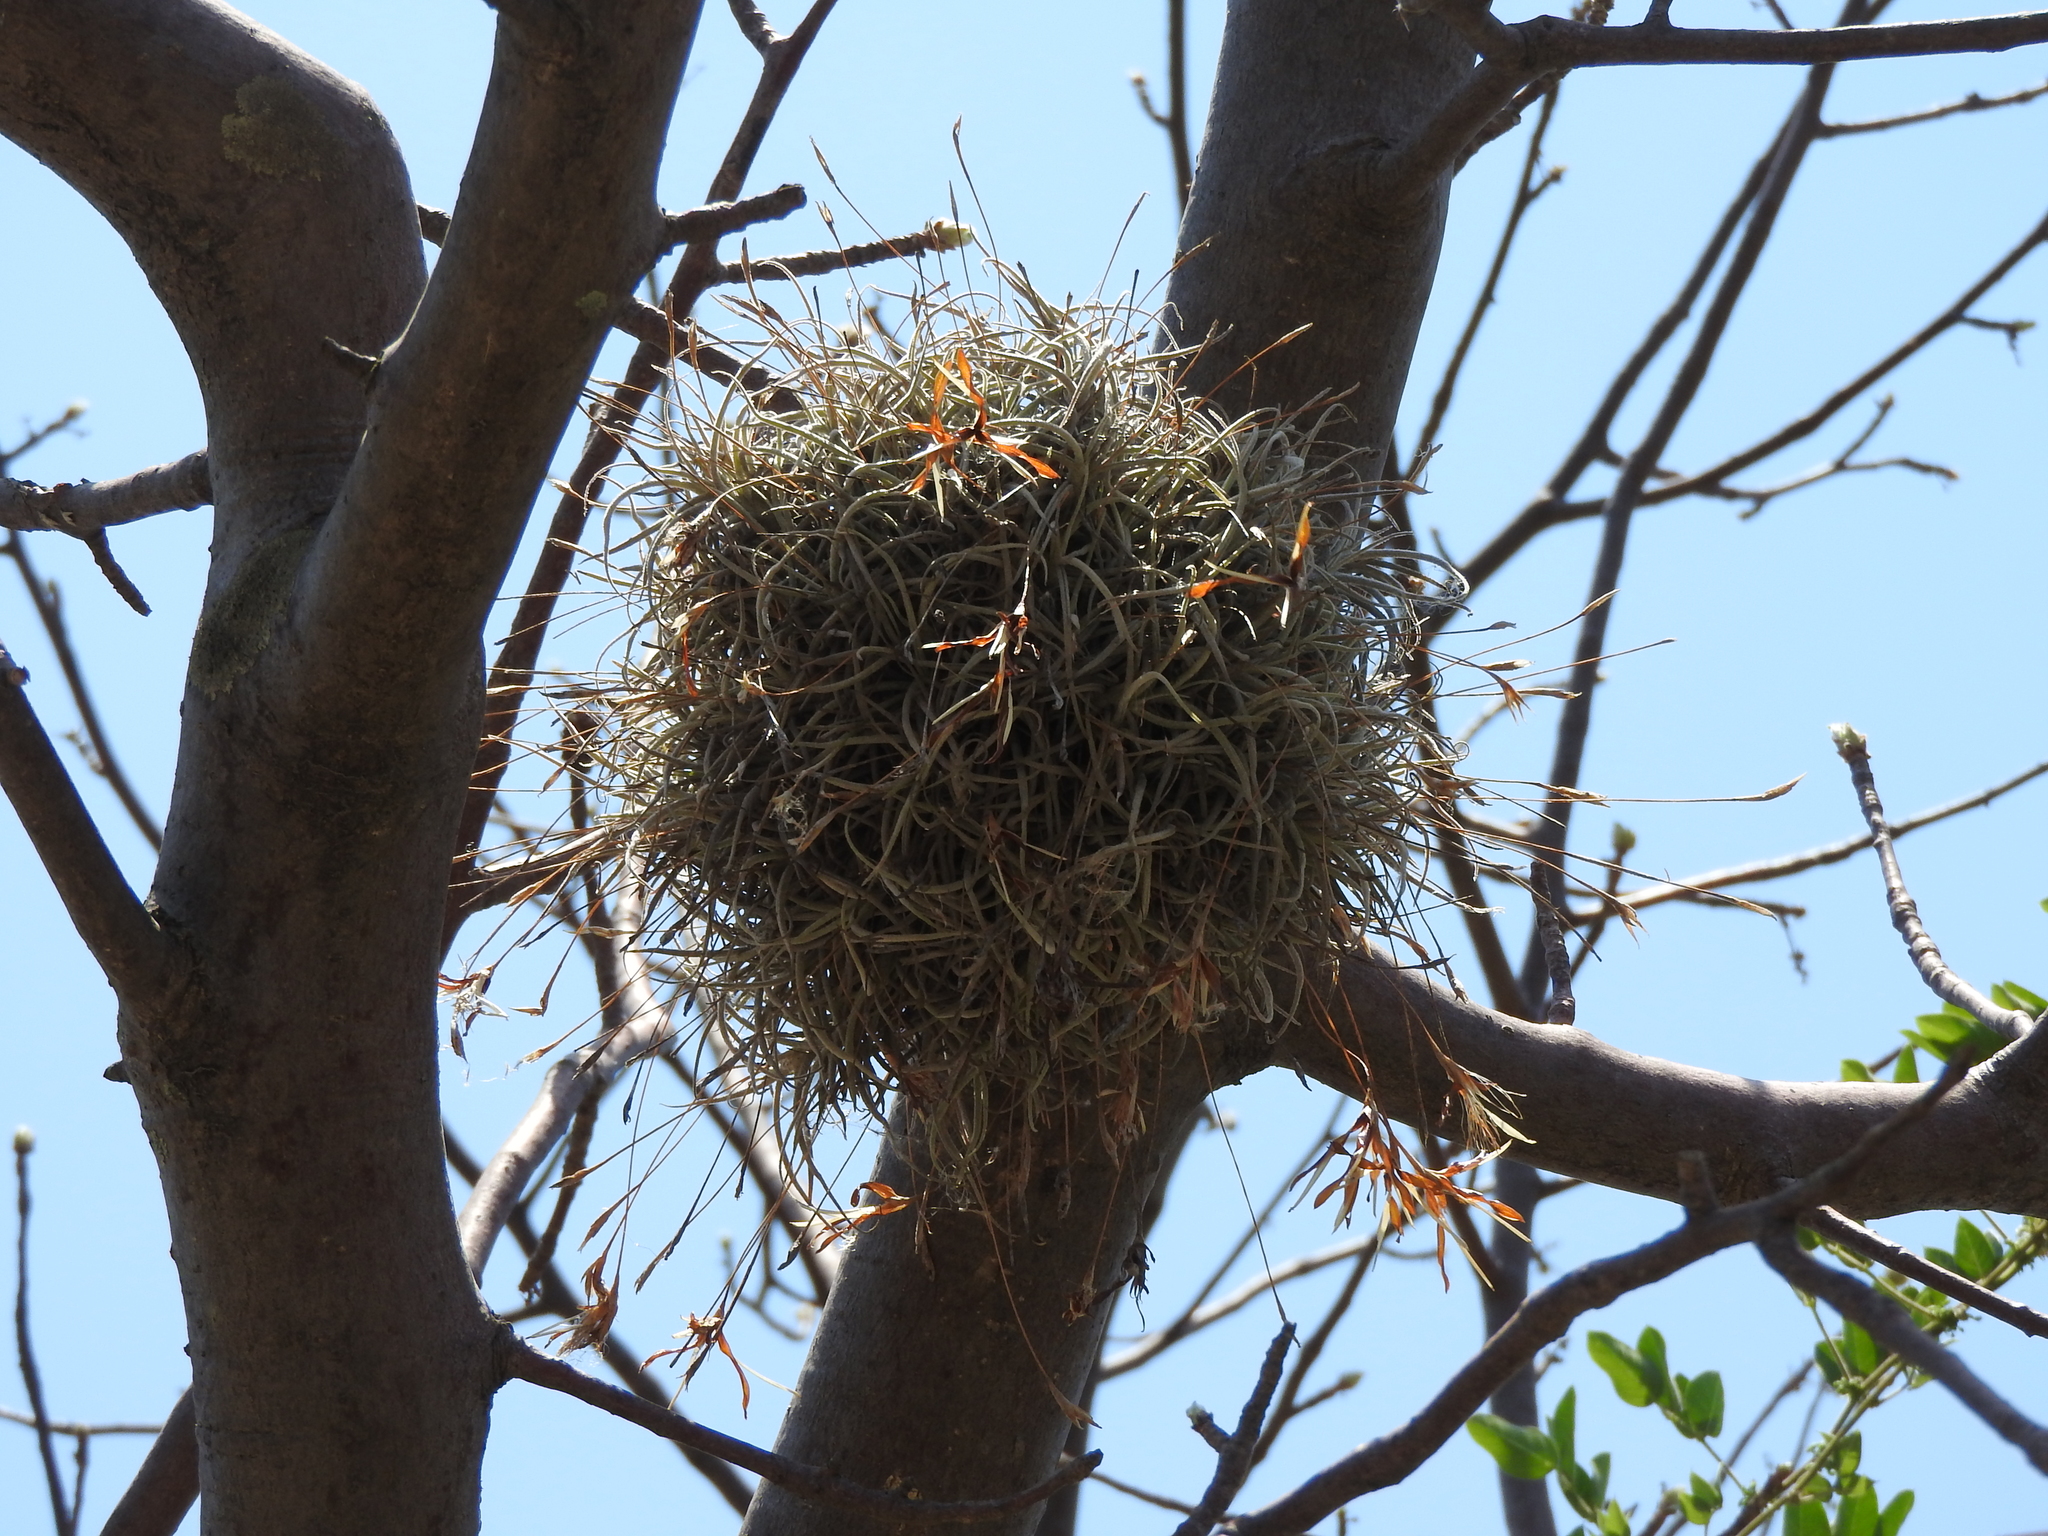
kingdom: Plantae
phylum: Tracheophyta
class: Liliopsida
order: Poales
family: Bromeliaceae
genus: Tillandsia
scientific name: Tillandsia recurvata
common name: Small ballmoss
